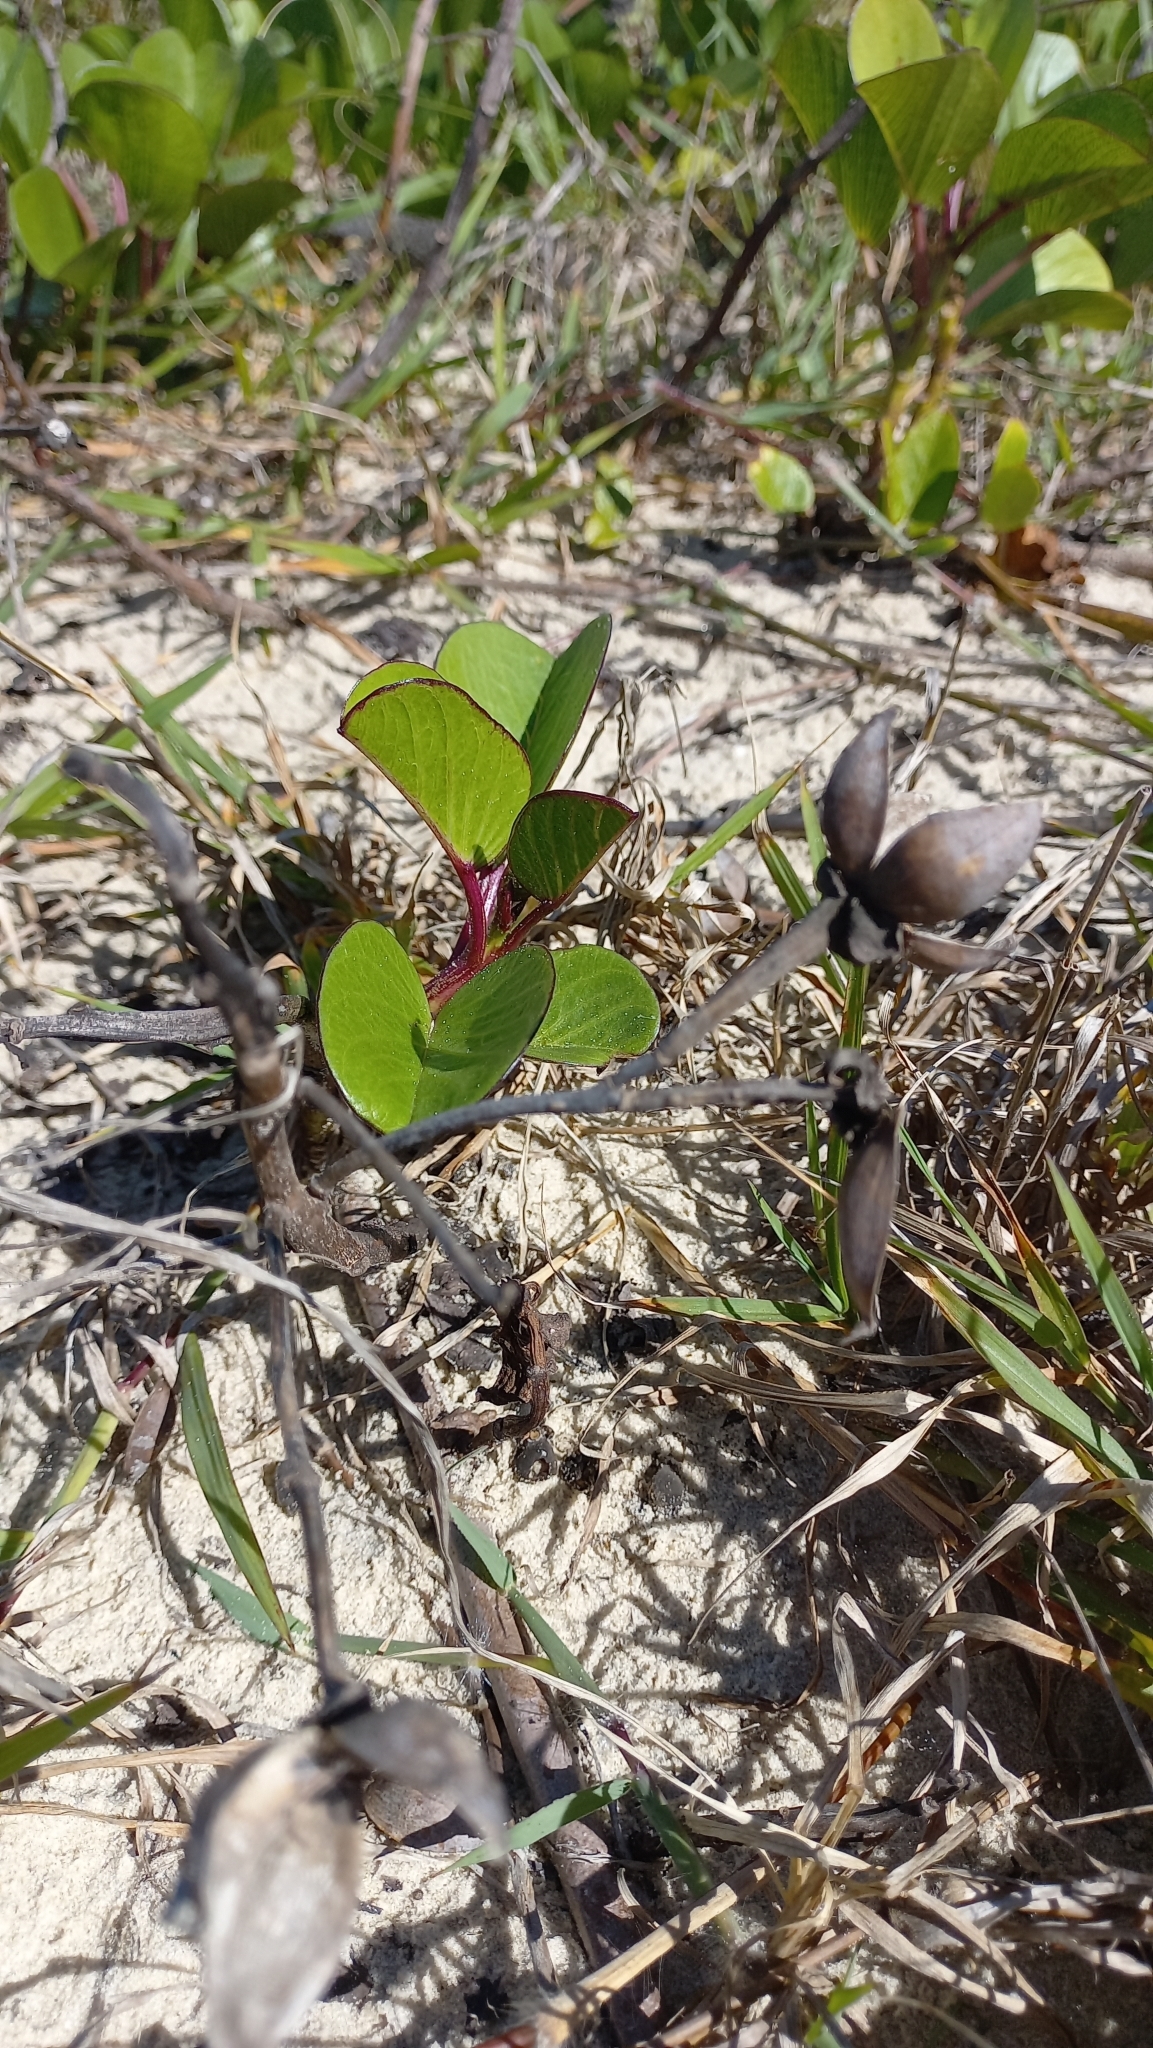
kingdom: Plantae
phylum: Tracheophyta
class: Magnoliopsida
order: Solanales
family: Convolvulaceae
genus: Ipomoea
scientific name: Ipomoea pes-caprae
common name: Beach morning glory
